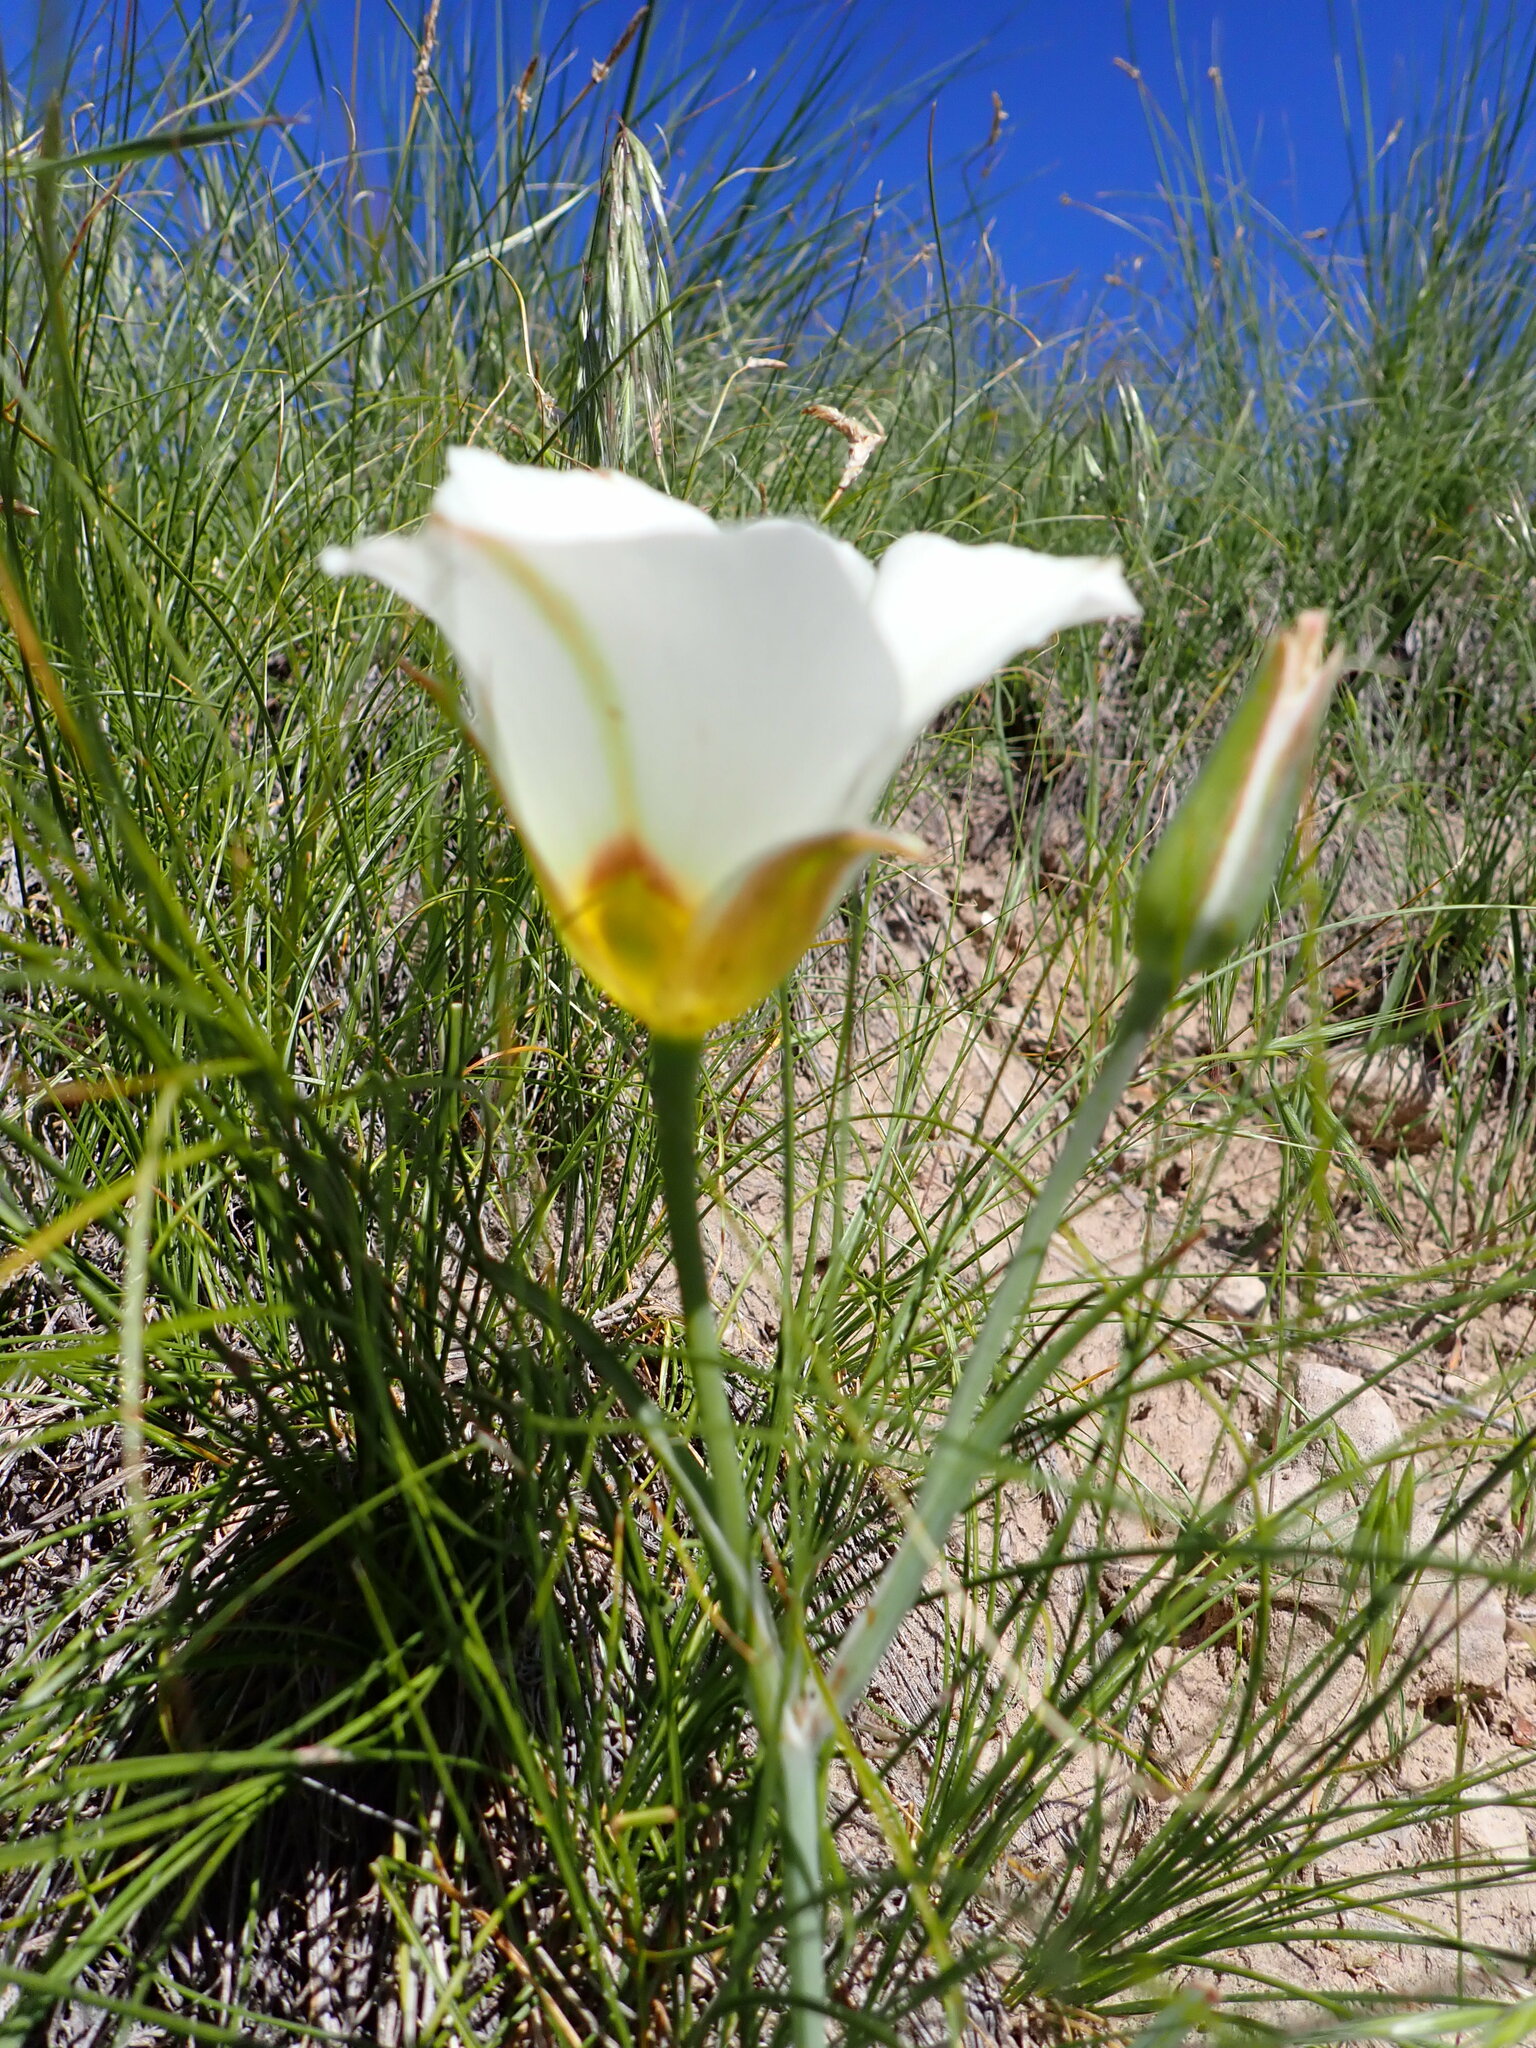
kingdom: Plantae
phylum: Tracheophyta
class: Liliopsida
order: Liliales
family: Liliaceae
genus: Calochortus
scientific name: Calochortus nuttallii
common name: Sego-lily
